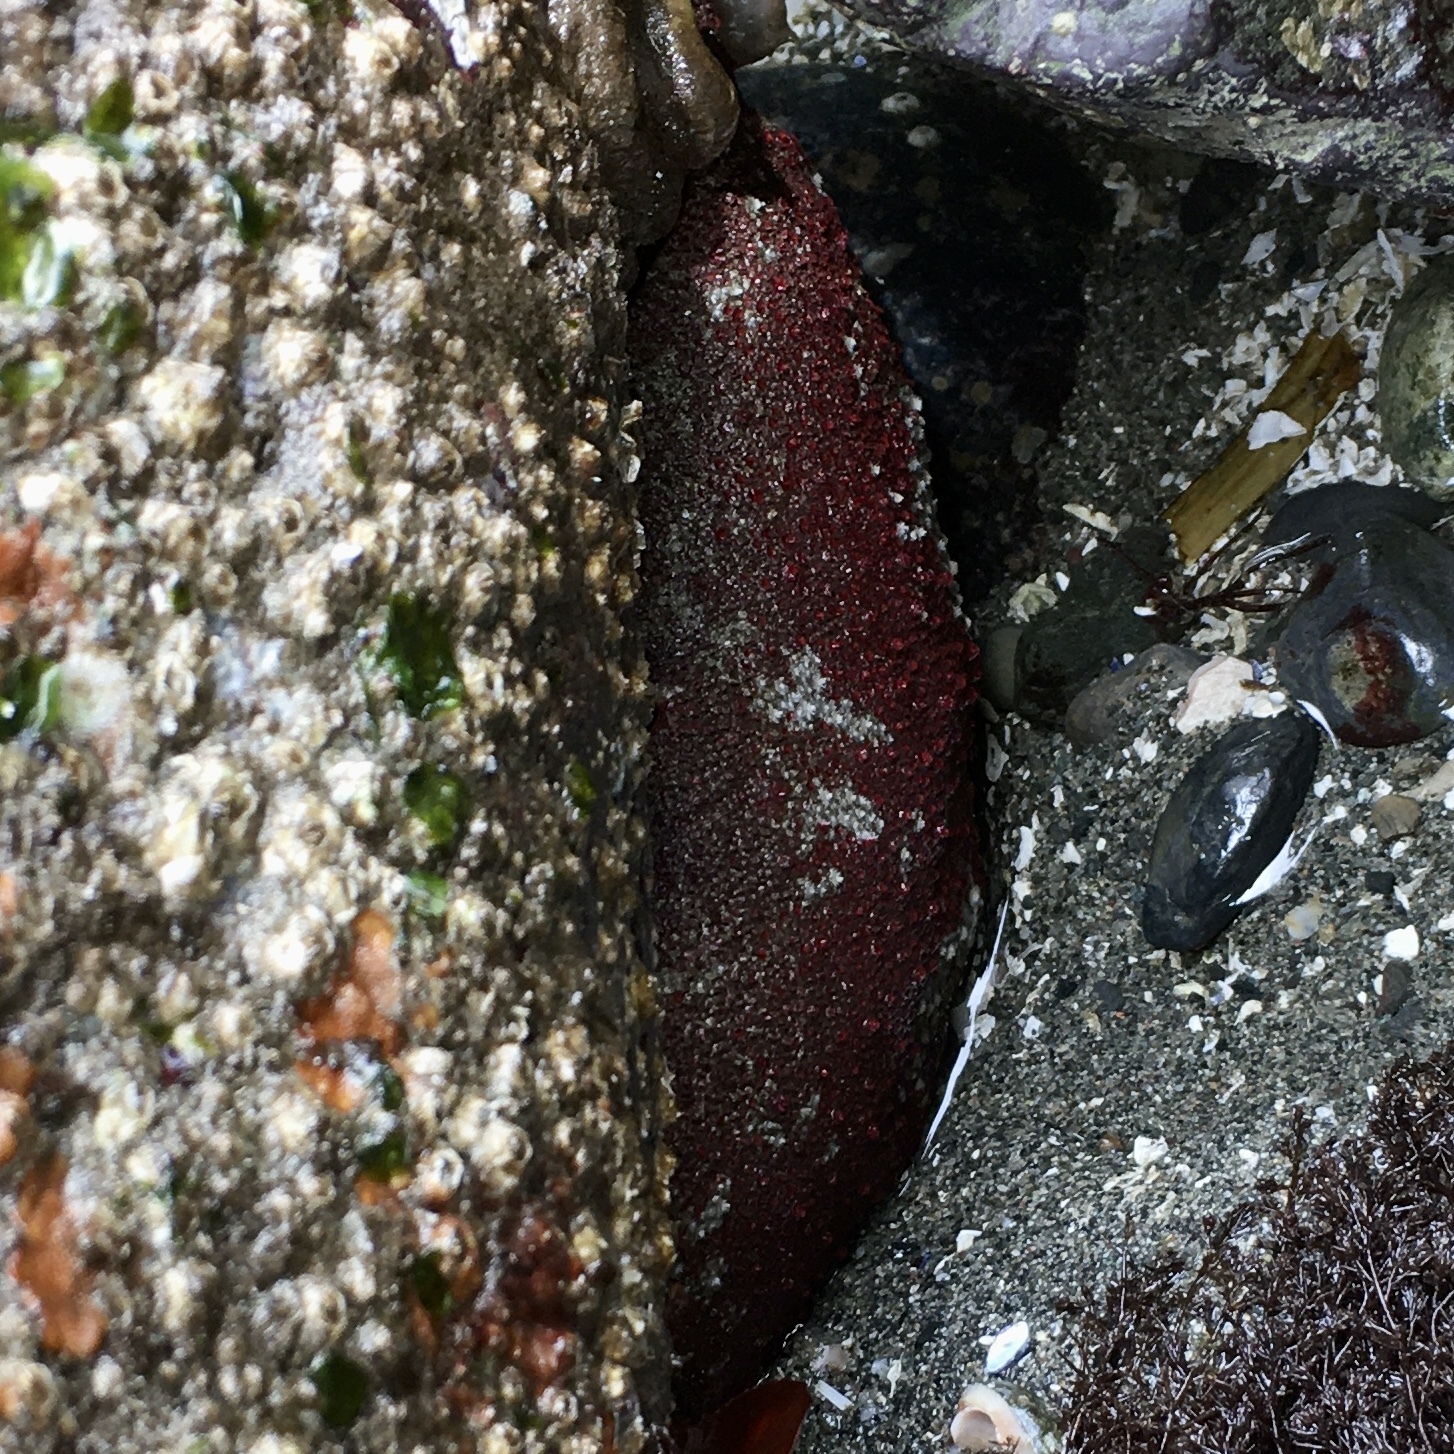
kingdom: Animalia
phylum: Mollusca
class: Polyplacophora
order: Chitonida
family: Acanthochitonidae
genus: Cryptochiton
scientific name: Cryptochiton stelleri
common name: Giant pacific chiton
